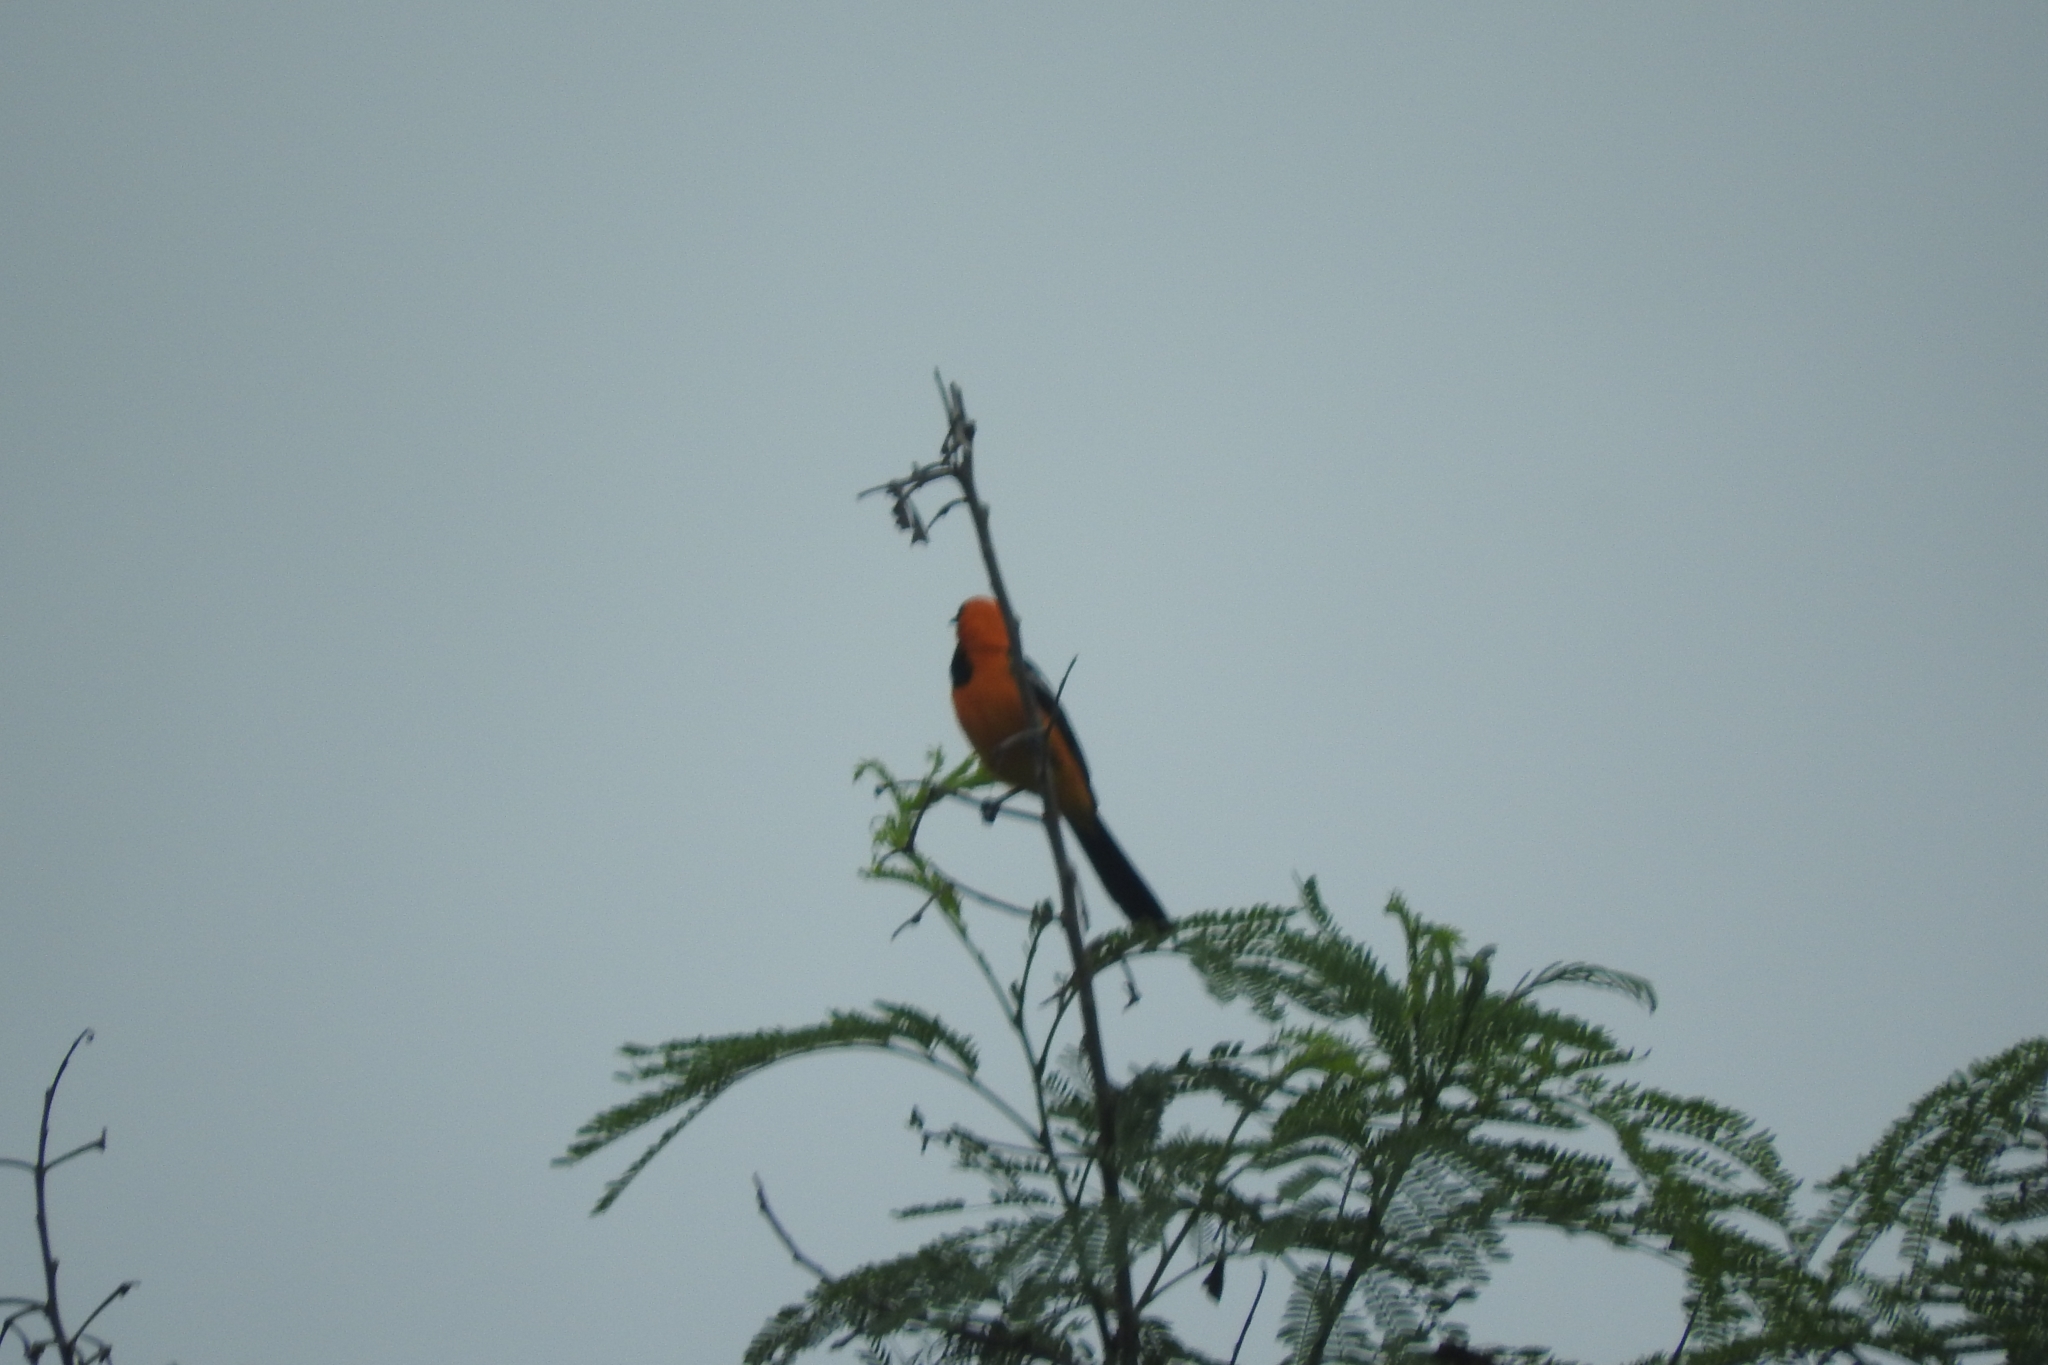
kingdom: Animalia
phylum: Chordata
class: Aves
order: Passeriformes
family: Icteridae
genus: Icterus
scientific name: Icterus gularis
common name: Altamira oriole
